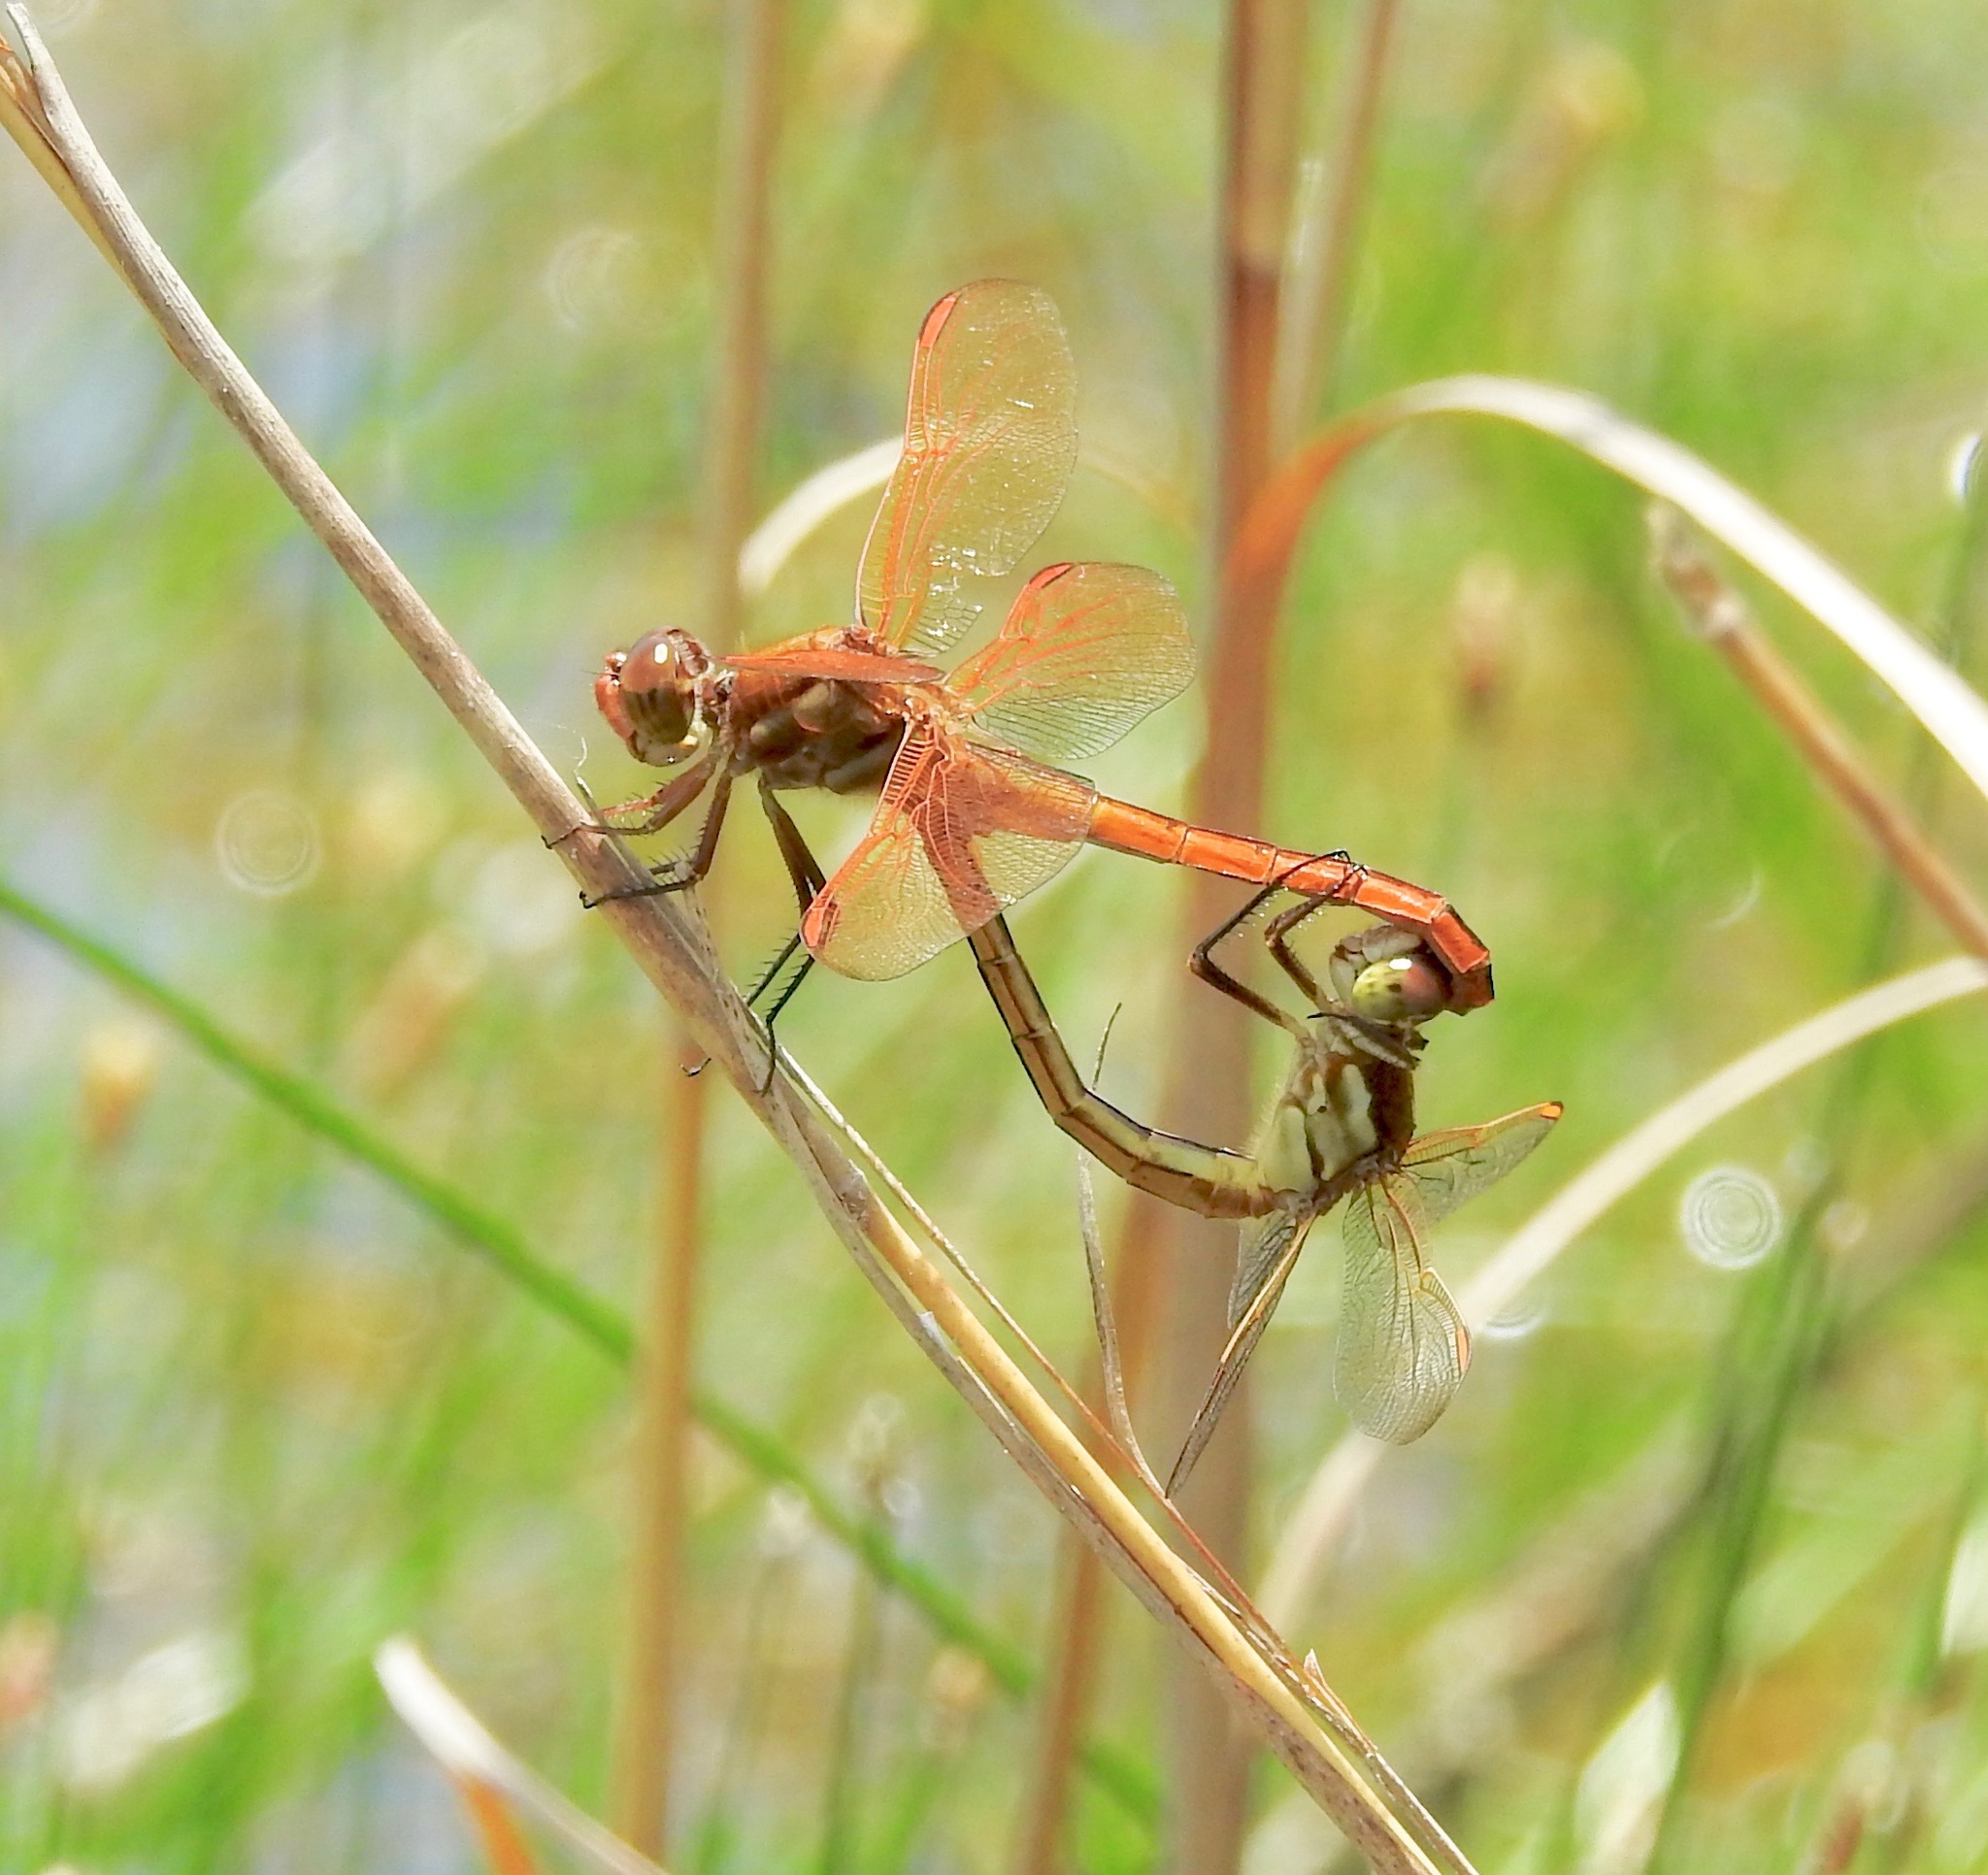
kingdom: Animalia
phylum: Arthropoda
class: Insecta
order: Odonata
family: Libellulidae
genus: Libellula
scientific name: Libellula auripennis
